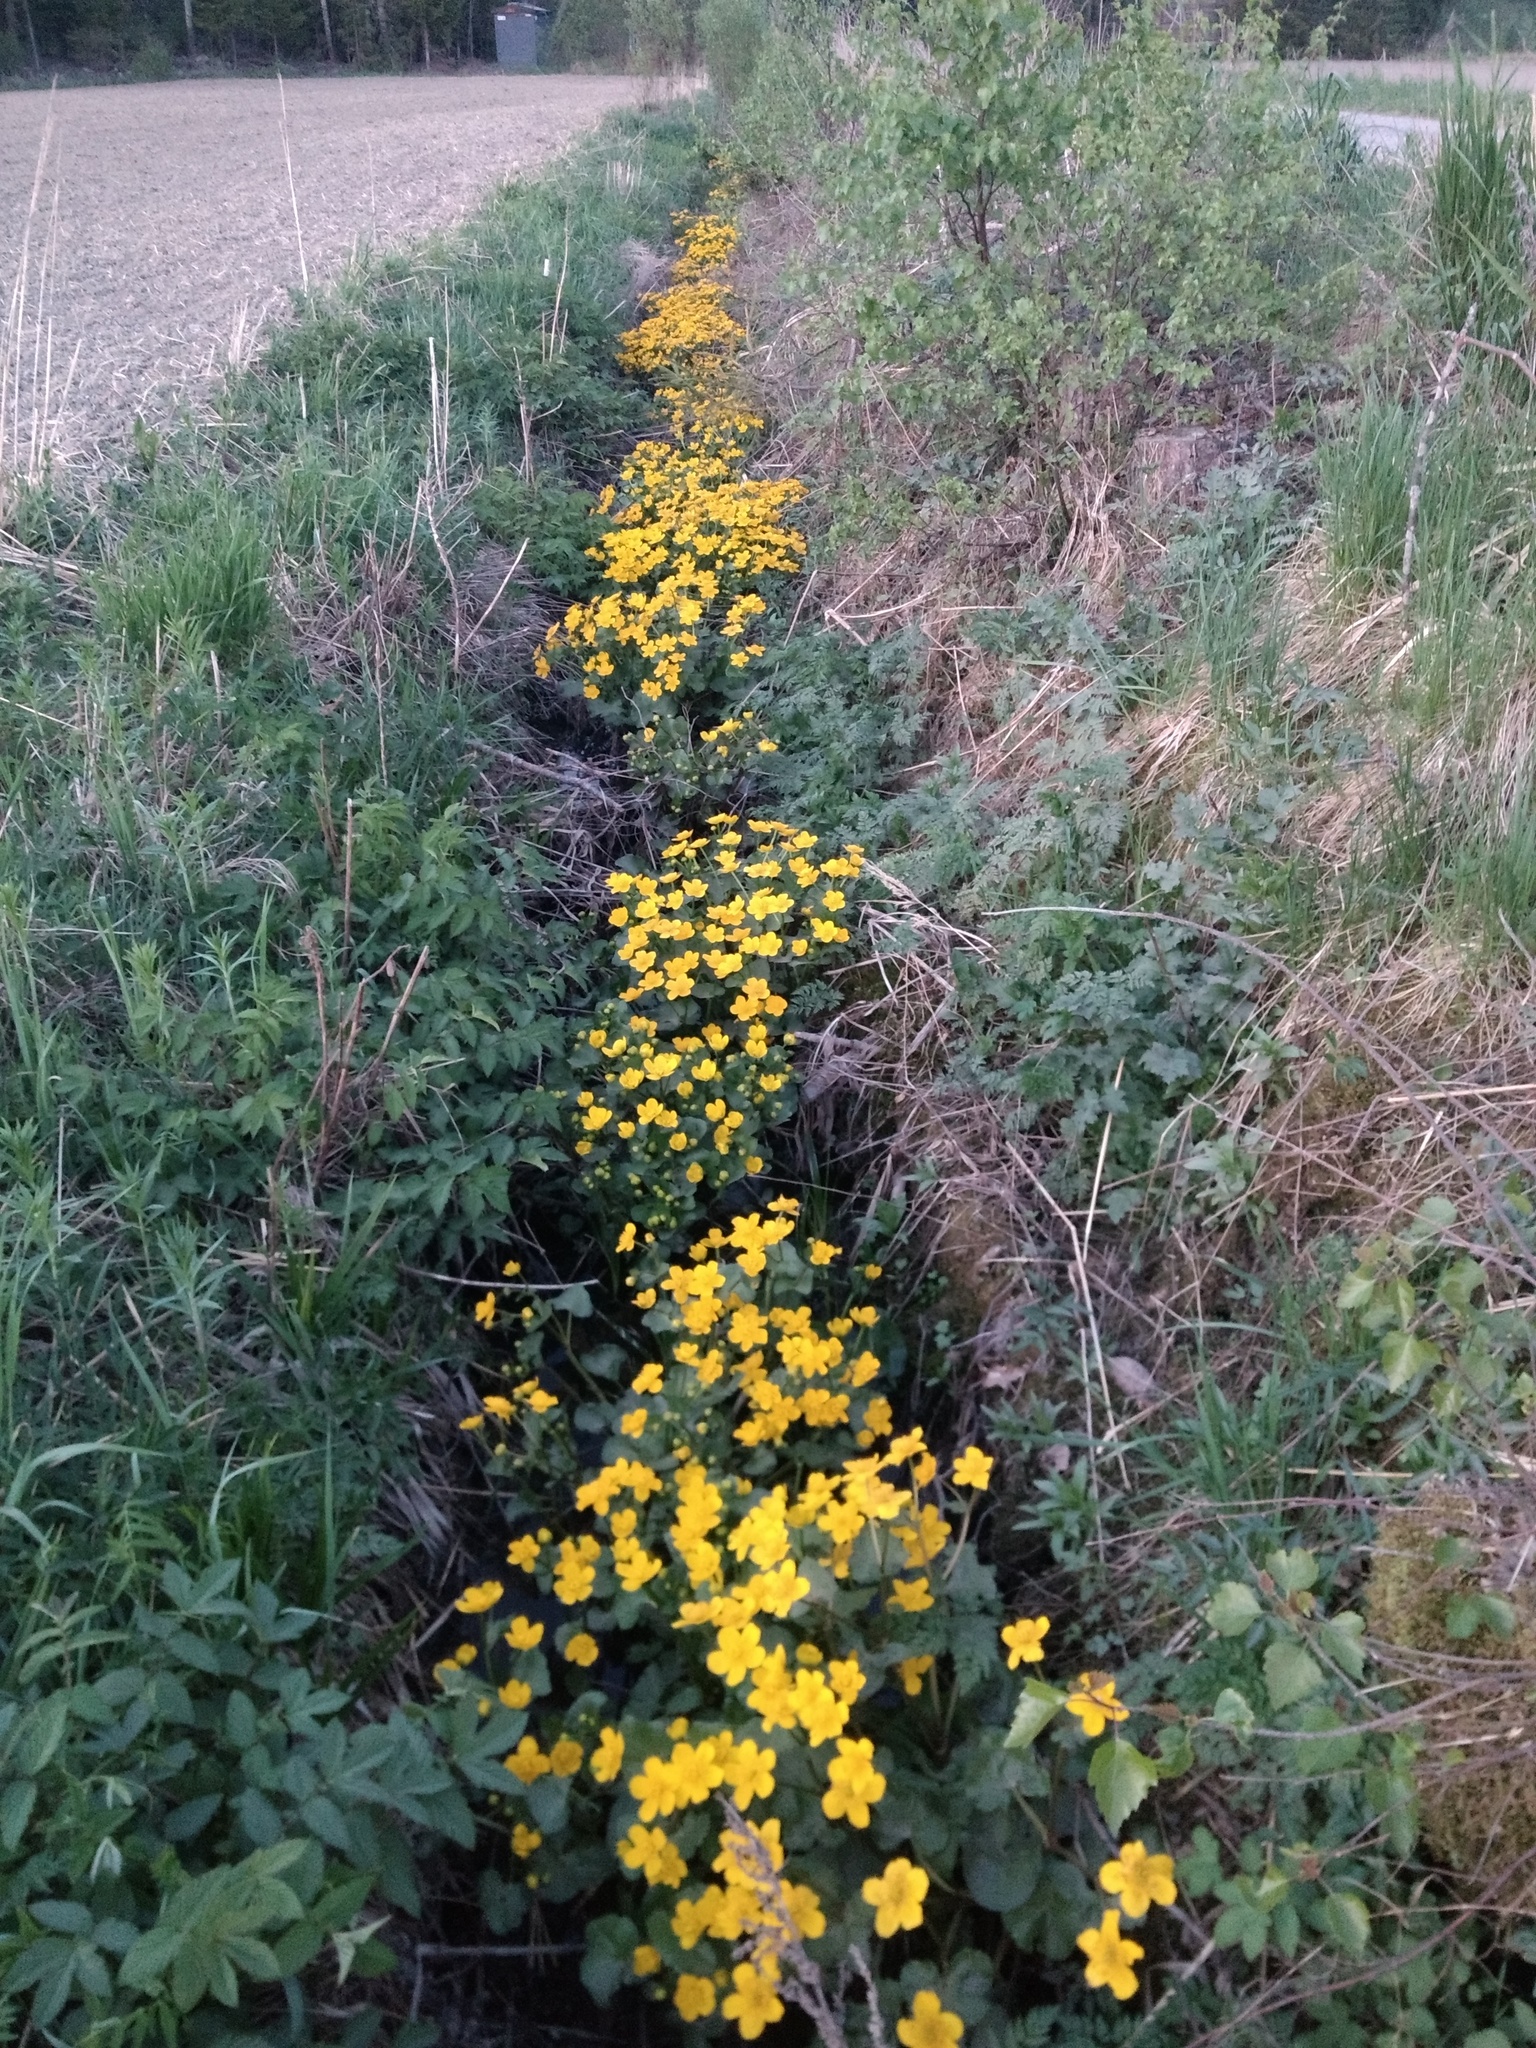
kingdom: Plantae
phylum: Tracheophyta
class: Magnoliopsida
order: Ranunculales
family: Ranunculaceae
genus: Caltha
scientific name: Caltha palustris
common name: Marsh marigold
